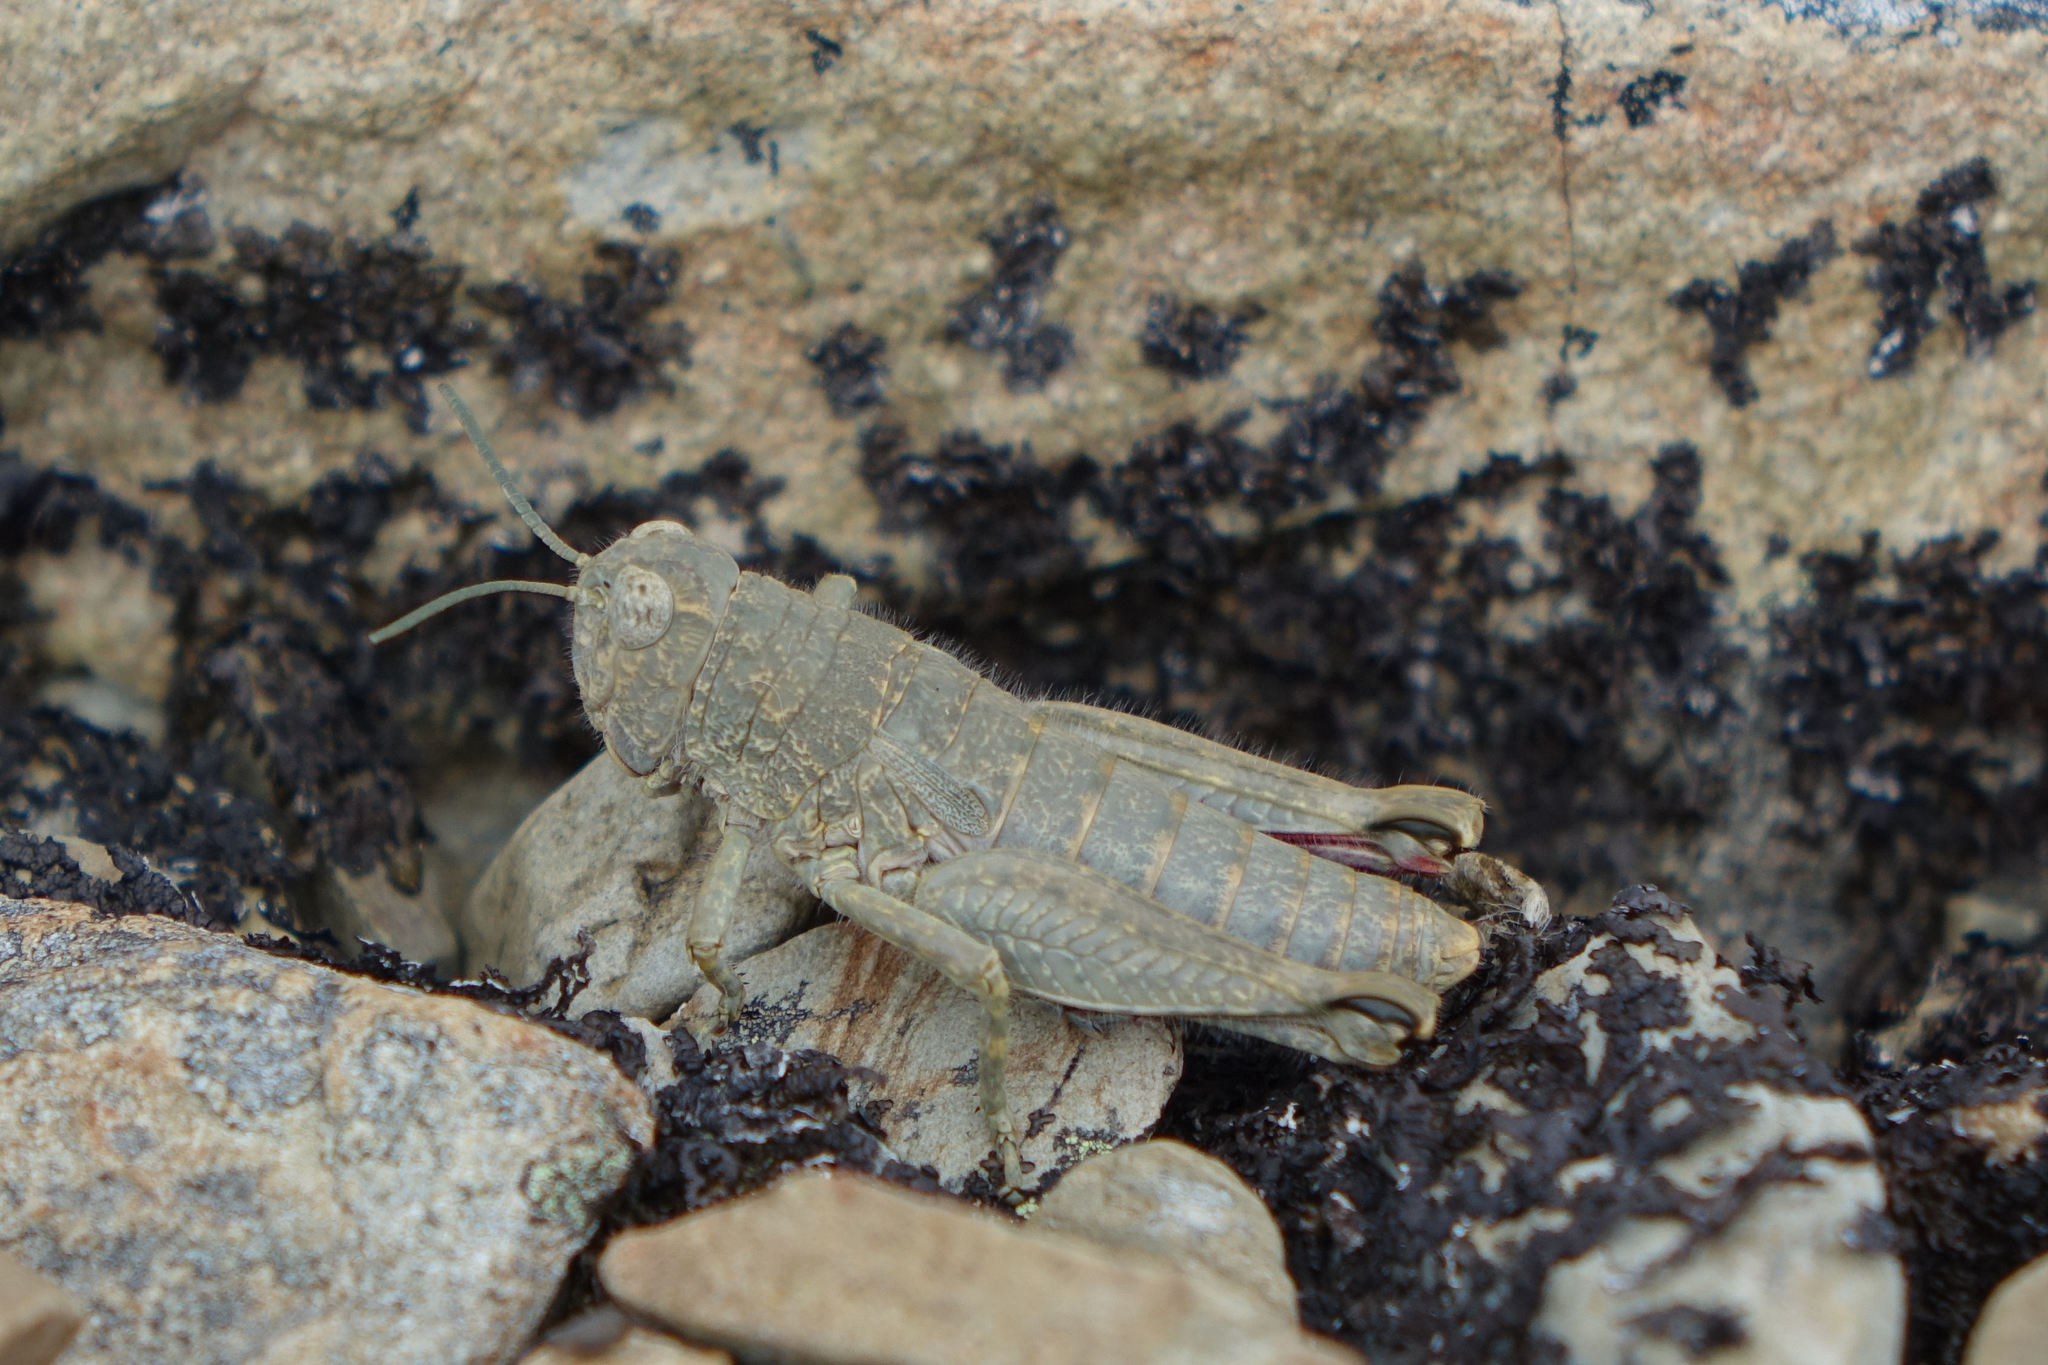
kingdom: Animalia
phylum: Arthropoda
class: Insecta
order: Orthoptera
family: Acrididae
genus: Sigaus
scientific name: Sigaus
